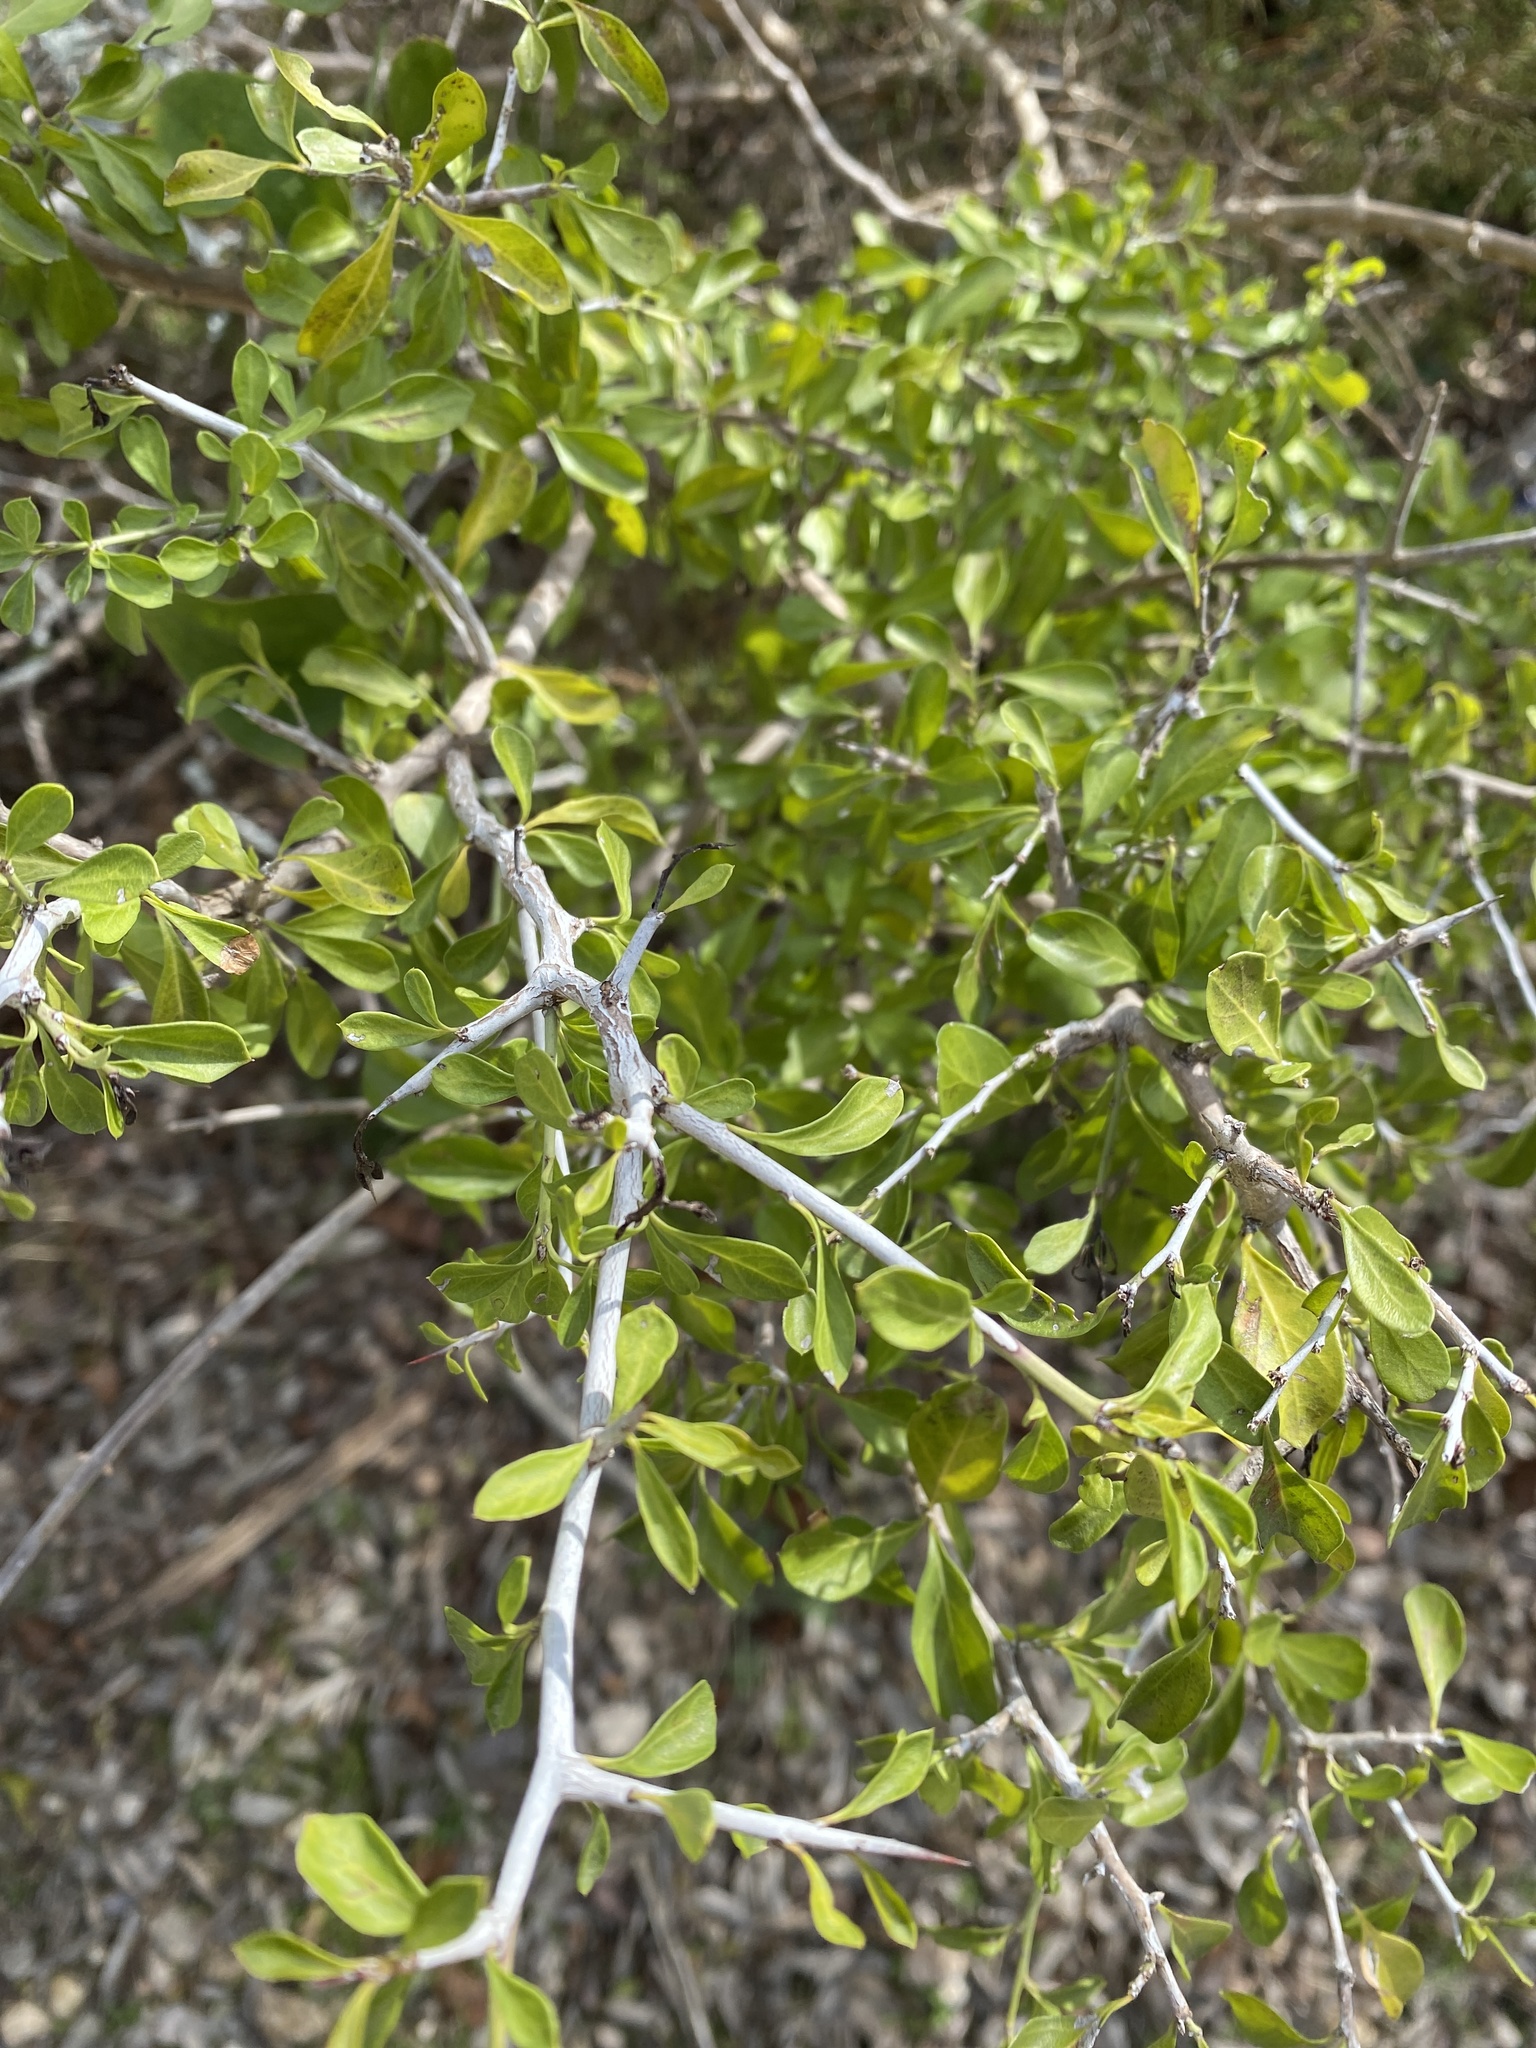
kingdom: Plantae
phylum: Tracheophyta
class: Magnoliopsida
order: Rosales
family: Rhamnaceae
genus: Condalia
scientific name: Condalia hookeri
